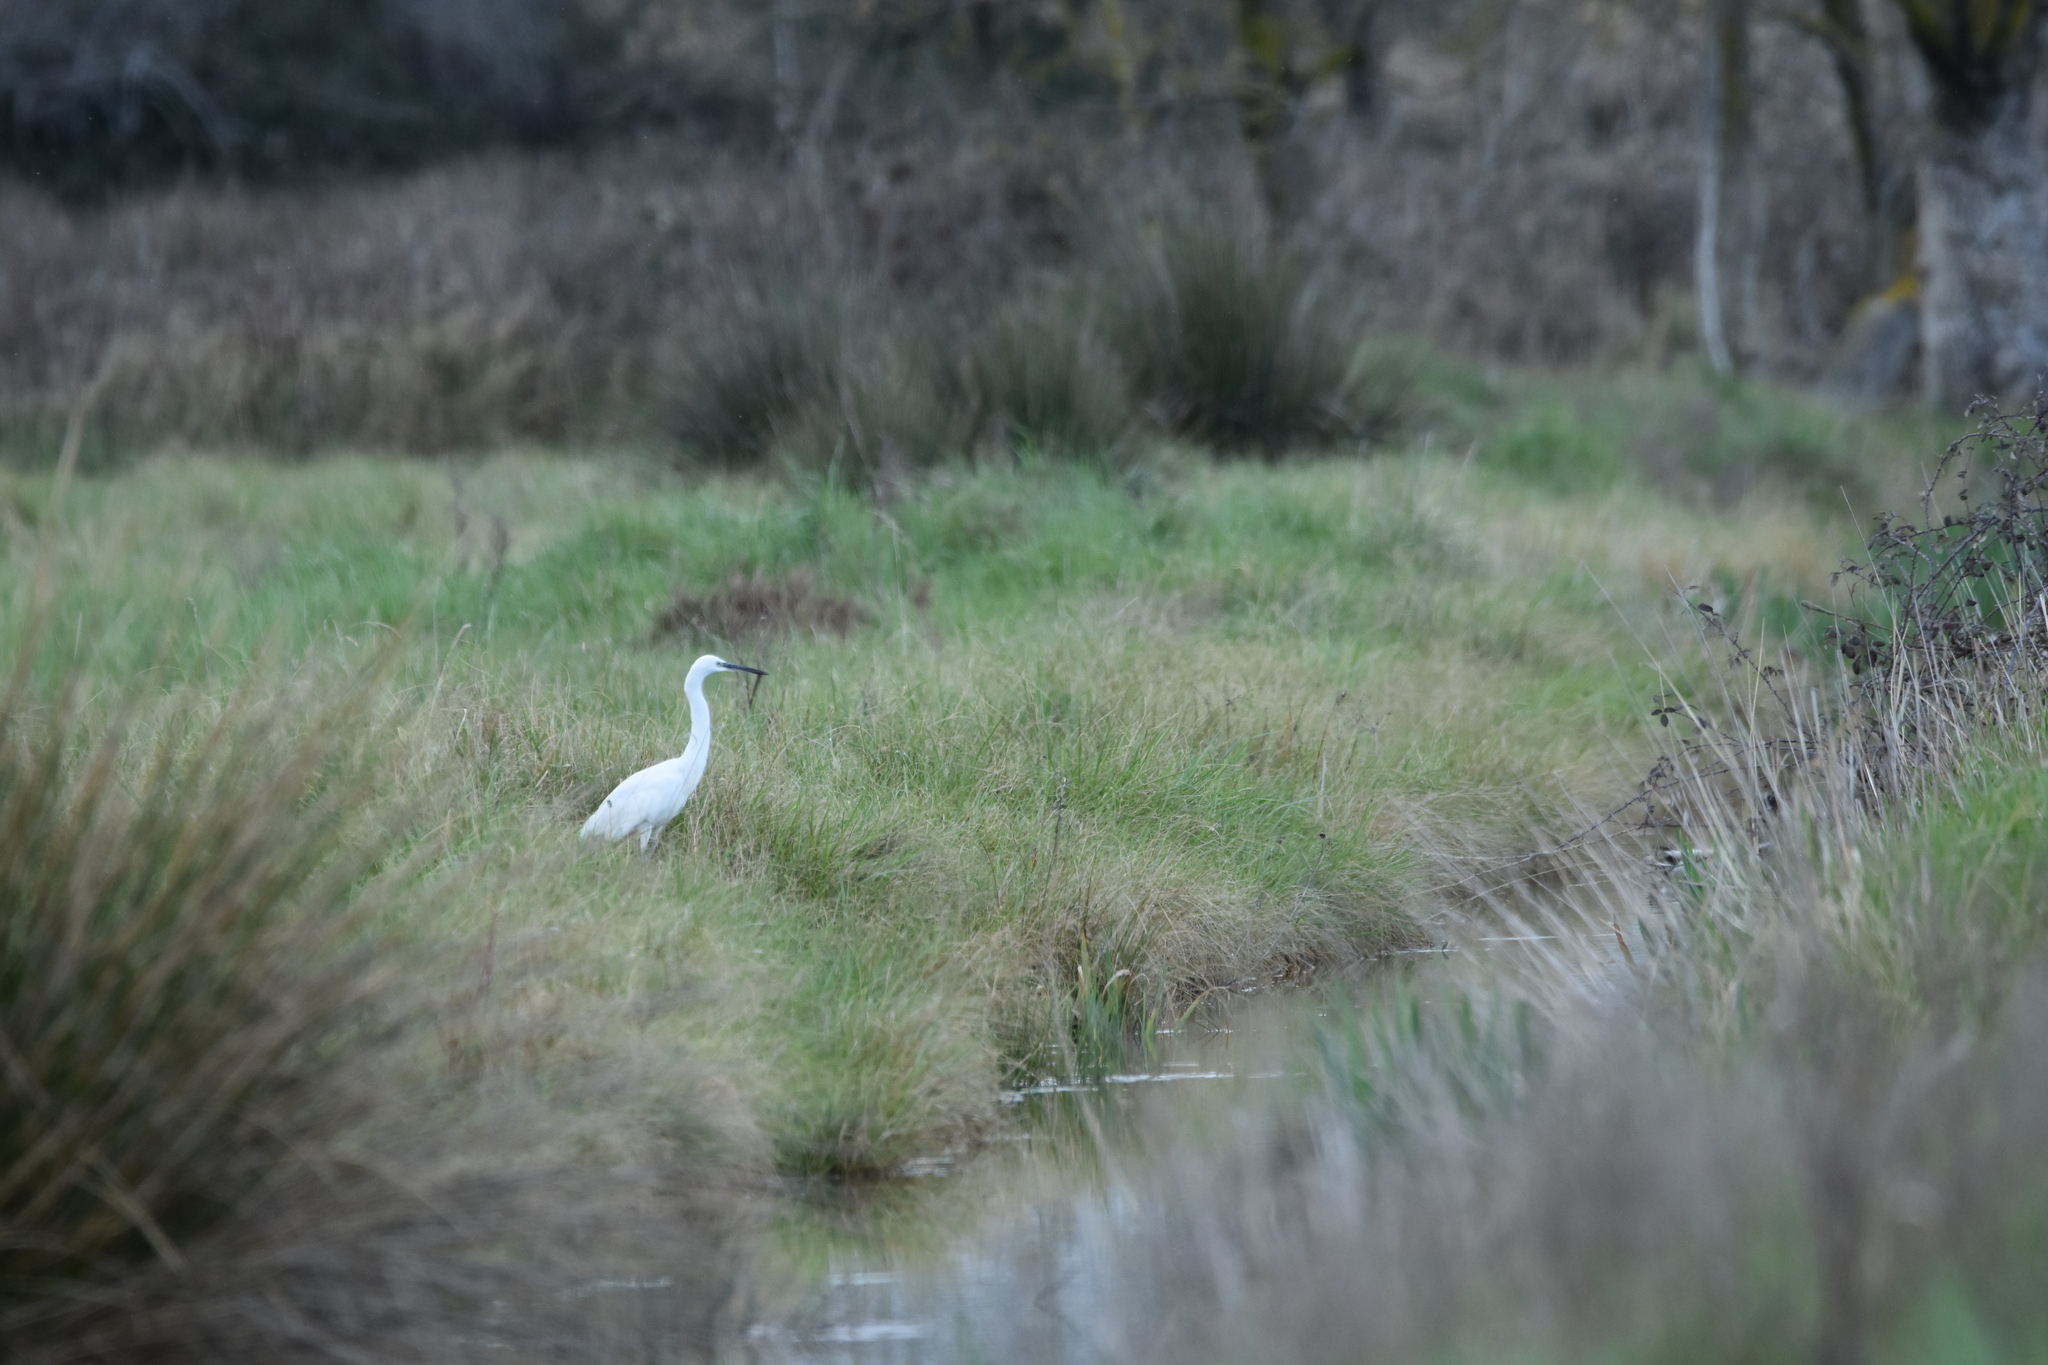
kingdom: Animalia
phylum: Chordata
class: Aves
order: Pelecaniformes
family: Ardeidae
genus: Egretta
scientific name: Egretta garzetta
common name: Little egret
